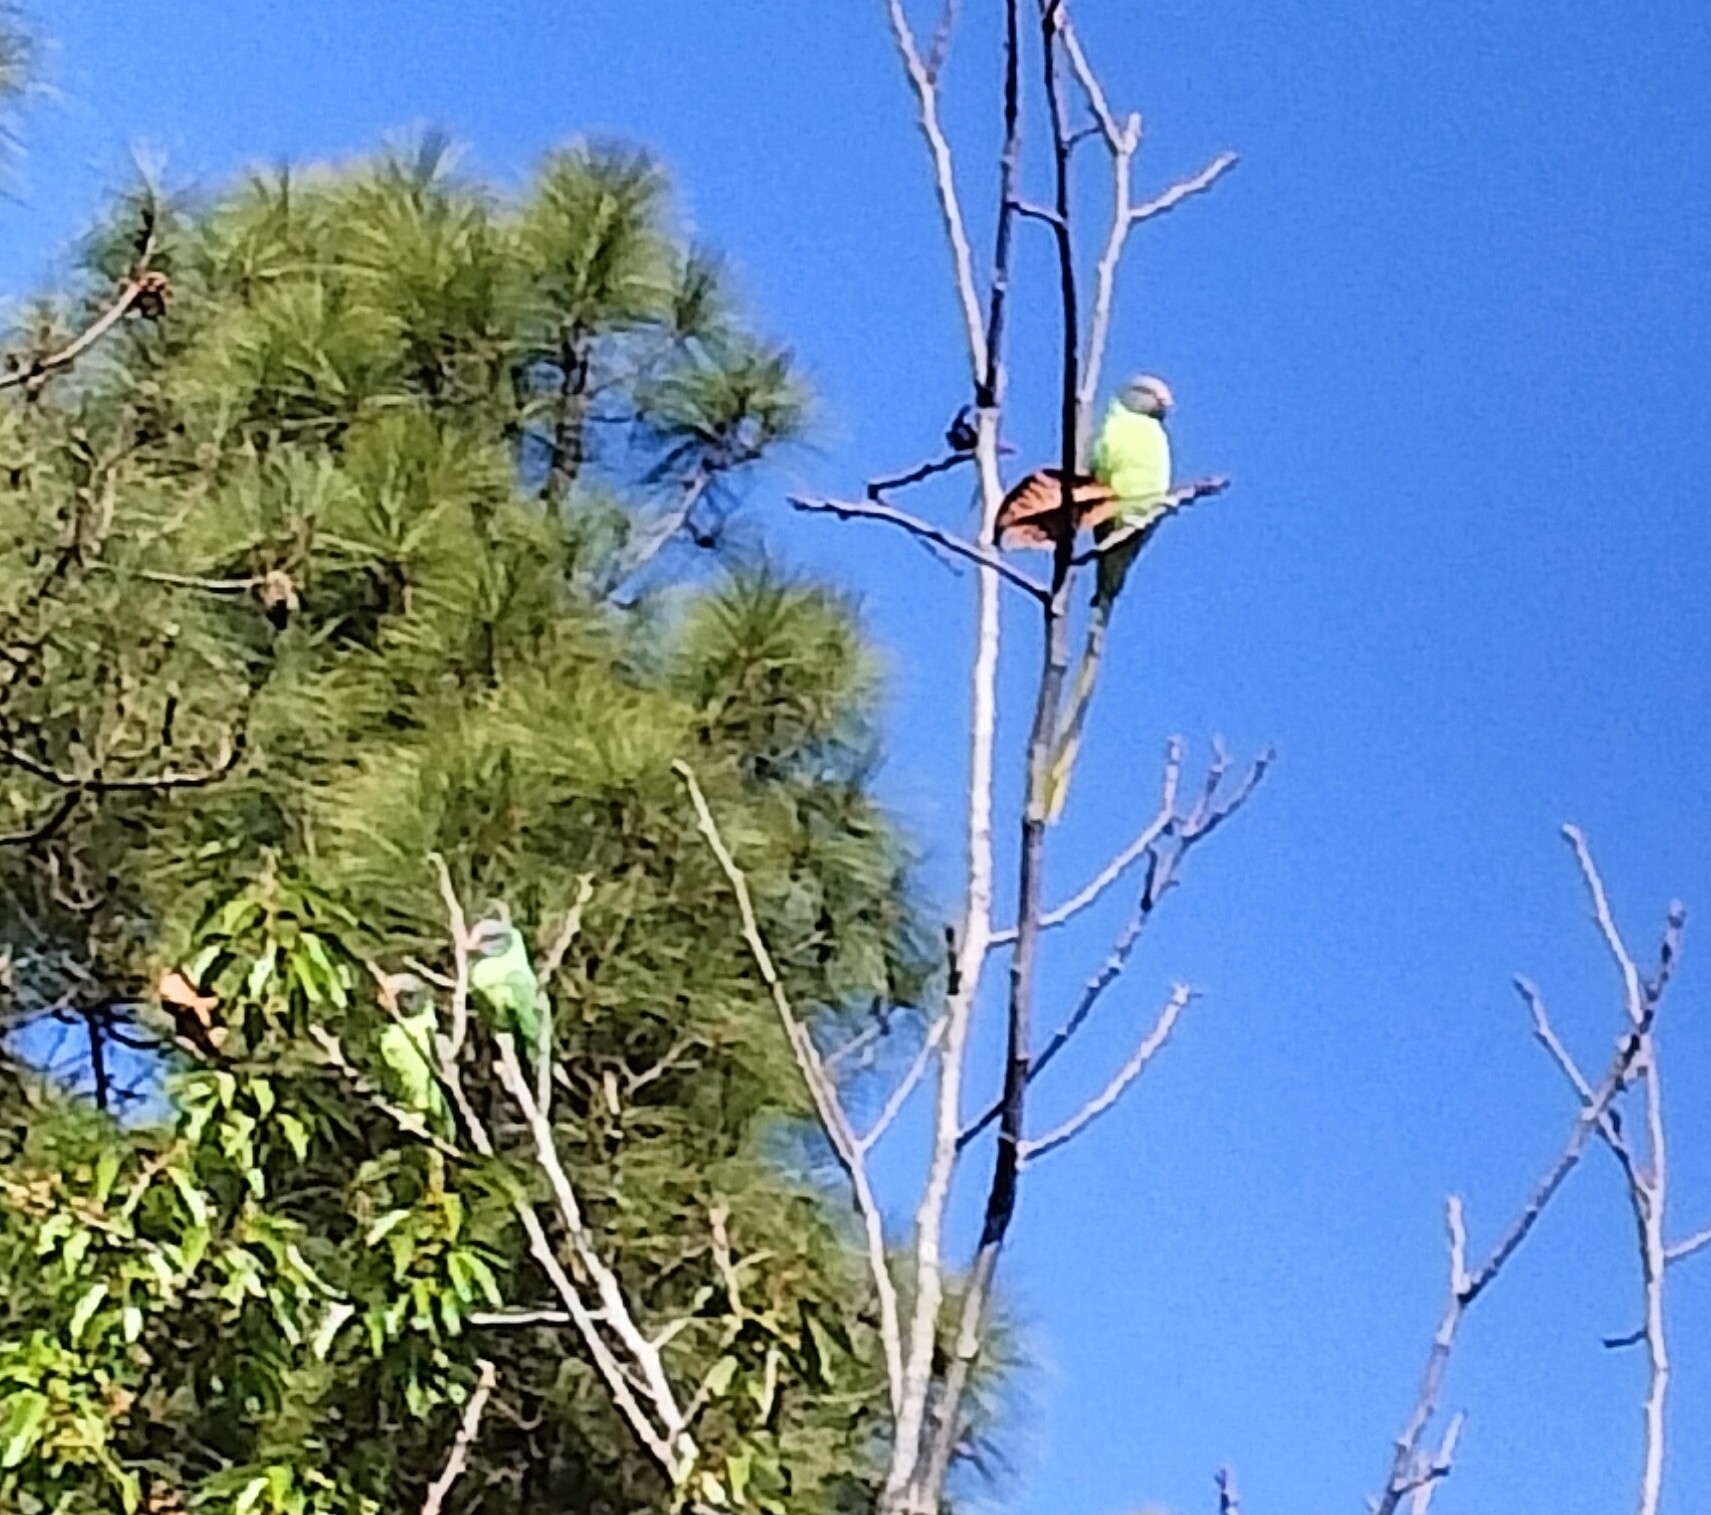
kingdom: Animalia
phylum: Chordata
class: Aves
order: Psittaciformes
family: Psittacidae
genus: Psittacula
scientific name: Psittacula himalayana
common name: Slaty-headed parakeet
